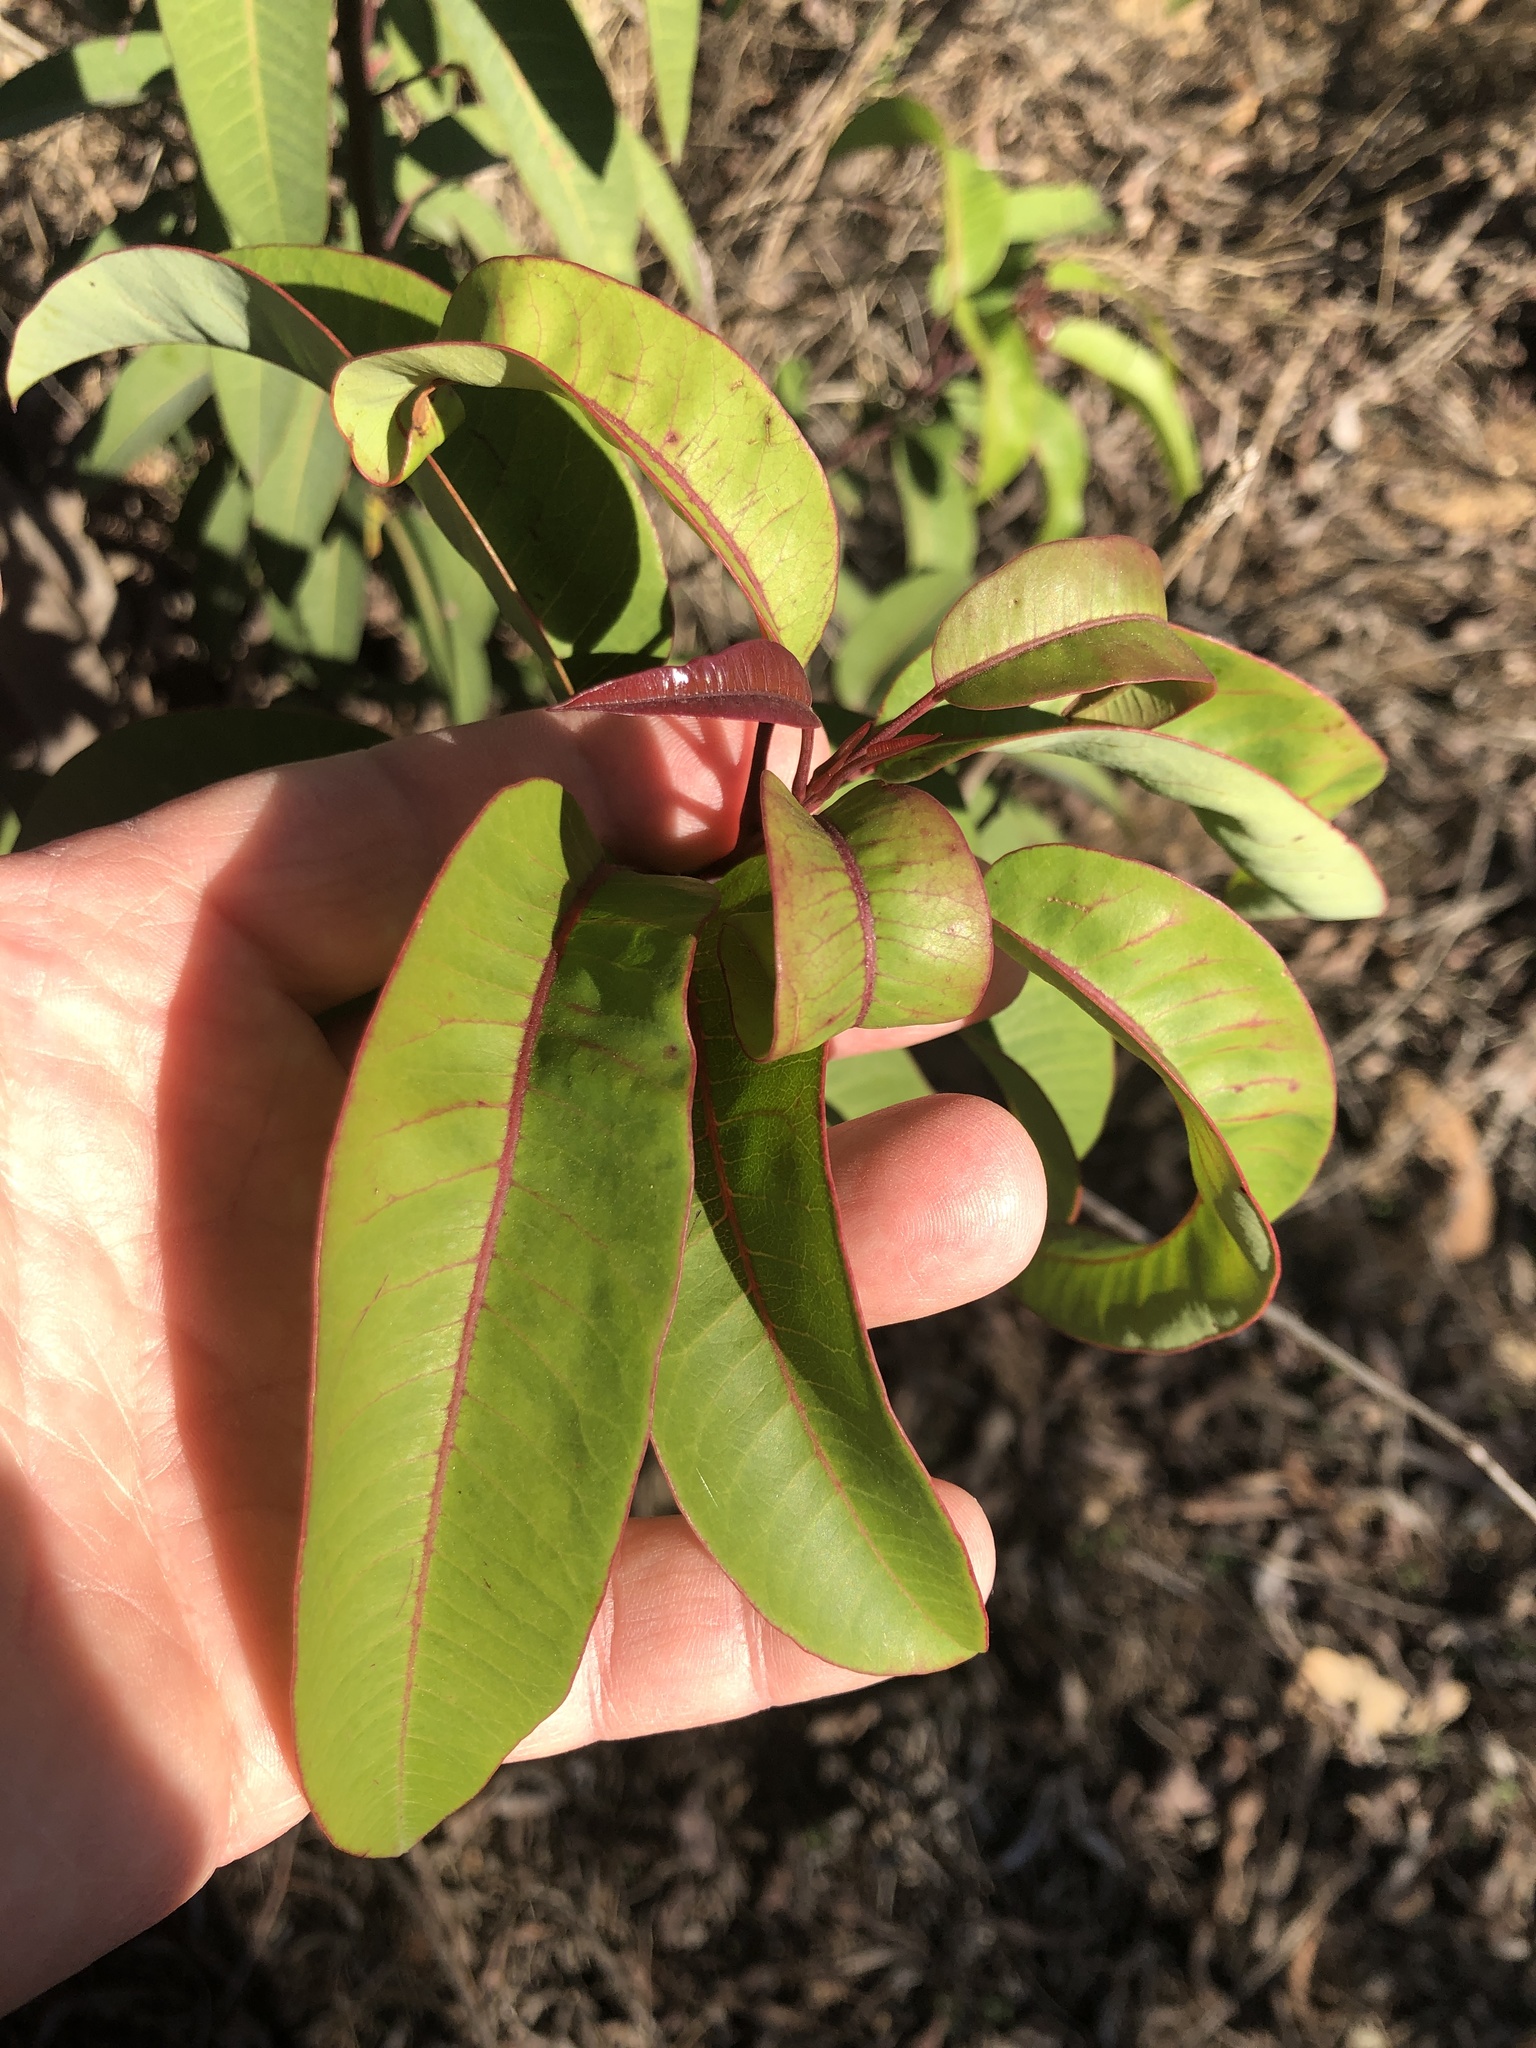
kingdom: Plantae
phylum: Tracheophyta
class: Magnoliopsida
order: Sapindales
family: Anacardiaceae
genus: Malosma
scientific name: Malosma laurina
